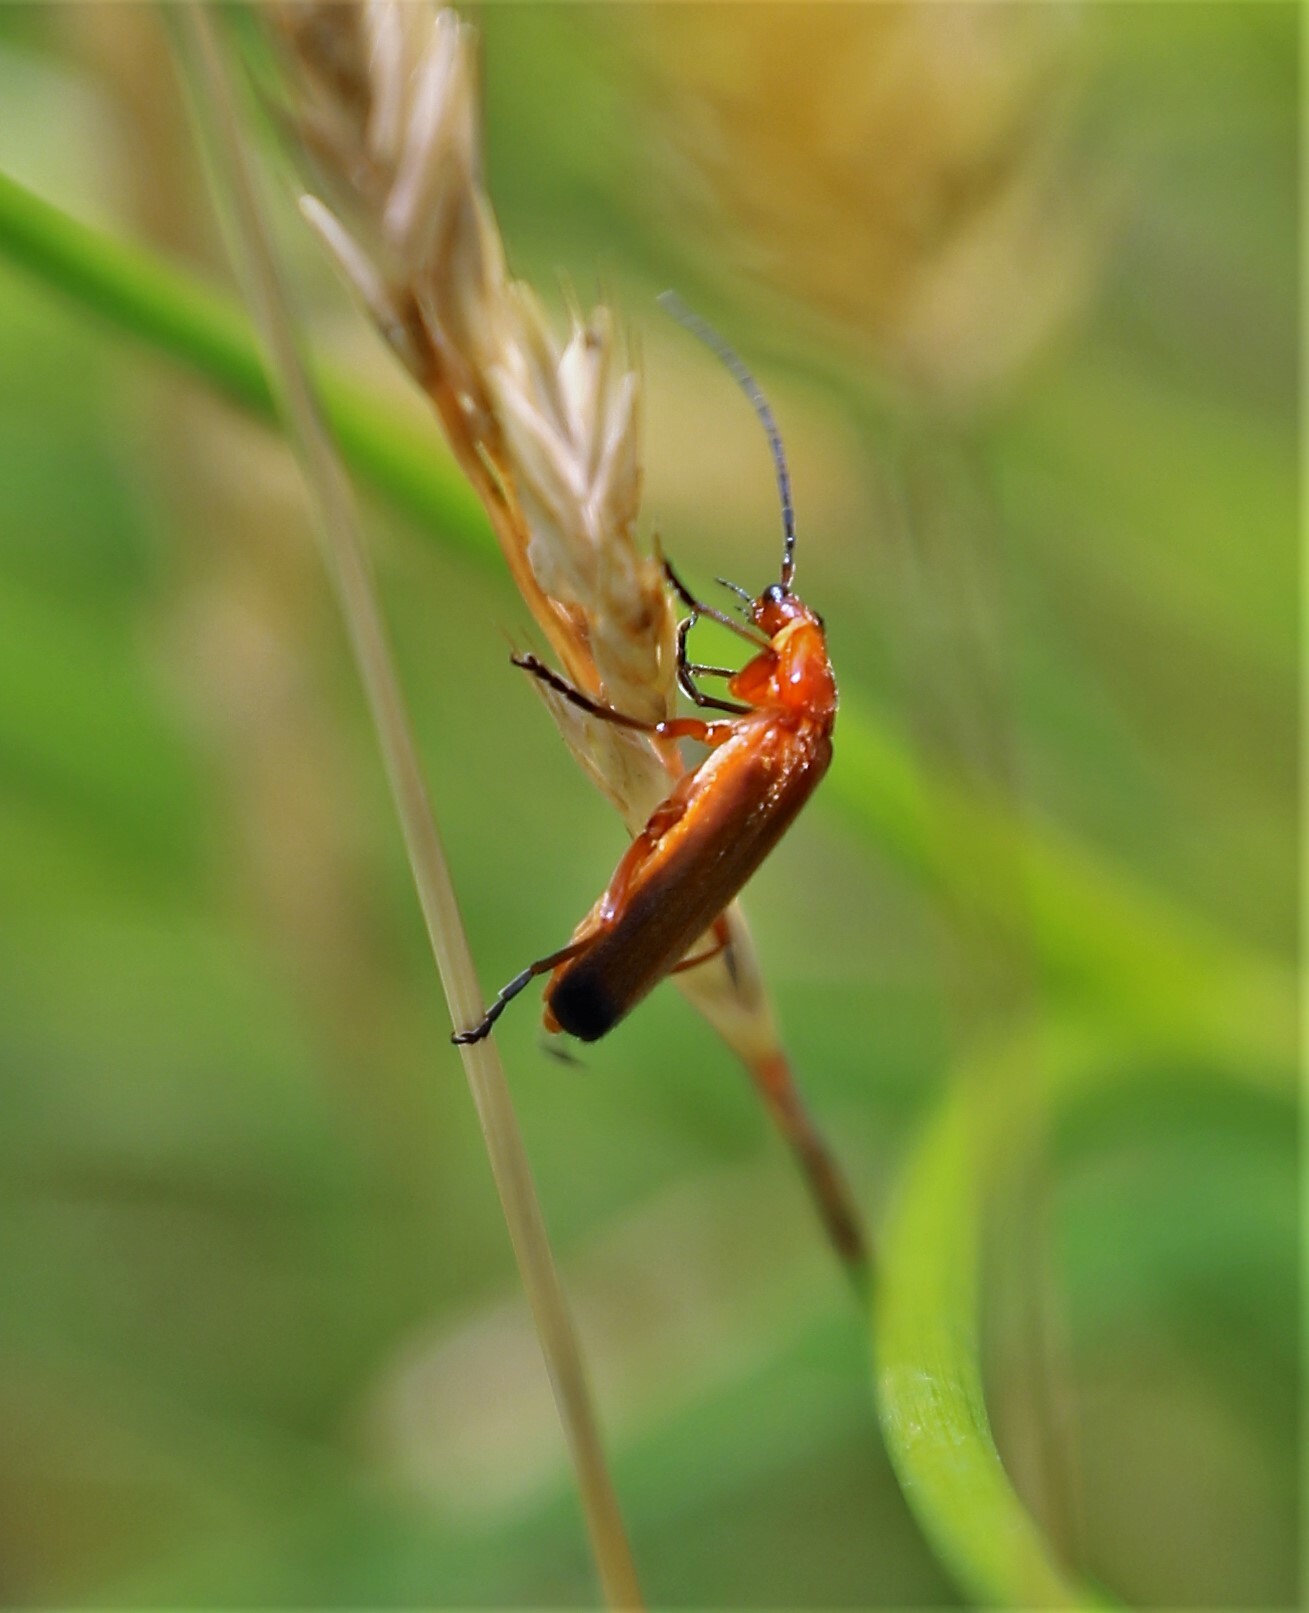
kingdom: Animalia
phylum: Arthropoda
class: Insecta
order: Coleoptera
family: Cantharidae
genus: Rhagonycha
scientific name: Rhagonycha fulva
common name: Common red soldier beetle
